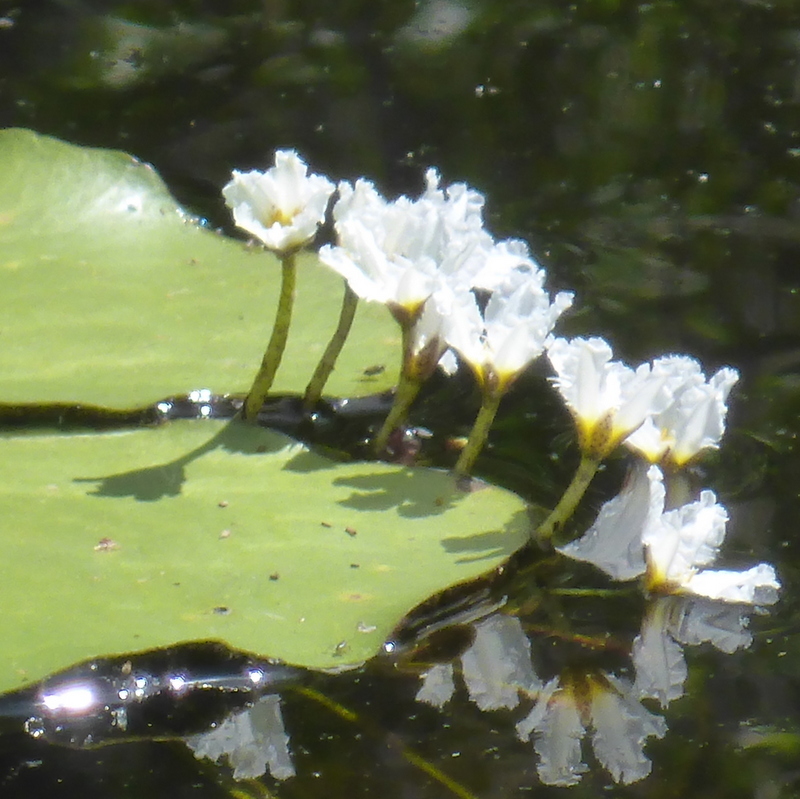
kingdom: Plantae
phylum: Tracheophyta
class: Magnoliopsida
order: Asterales
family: Menyanthaceae
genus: Nymphoides
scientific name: Nymphoides aquatica
